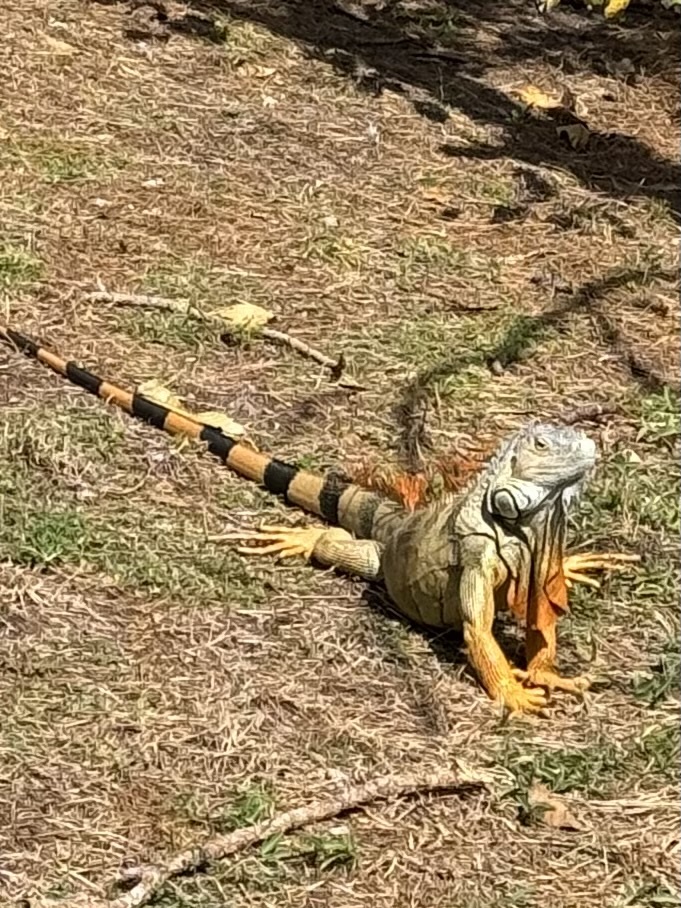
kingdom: Animalia
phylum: Chordata
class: Squamata
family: Iguanidae
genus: Iguana
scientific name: Iguana iguana
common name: Green iguana
